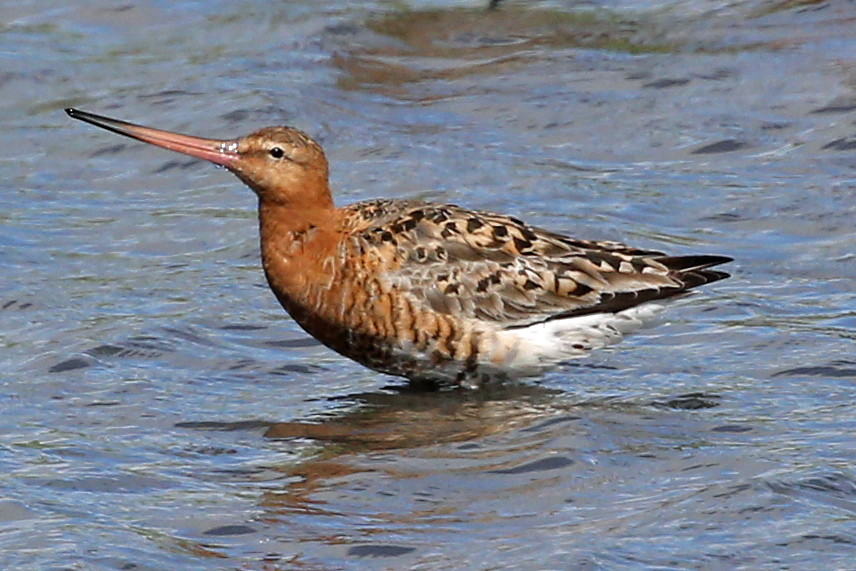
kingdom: Animalia
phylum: Chordata
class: Aves
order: Charadriiformes
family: Scolopacidae
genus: Limosa
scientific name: Limosa limosa
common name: Black-tailed godwit
